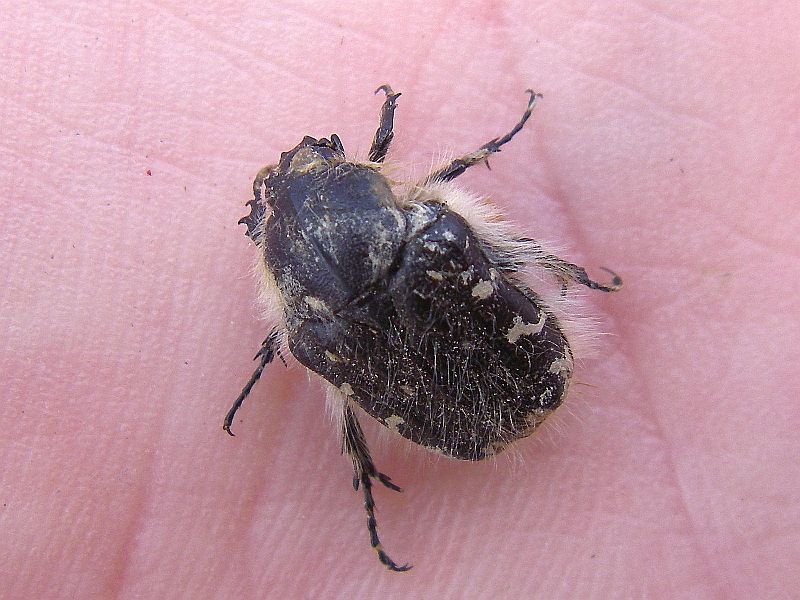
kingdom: Animalia
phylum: Arthropoda
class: Insecta
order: Coleoptera
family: Scarabaeidae
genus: Tropinota
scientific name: Tropinota hirta
